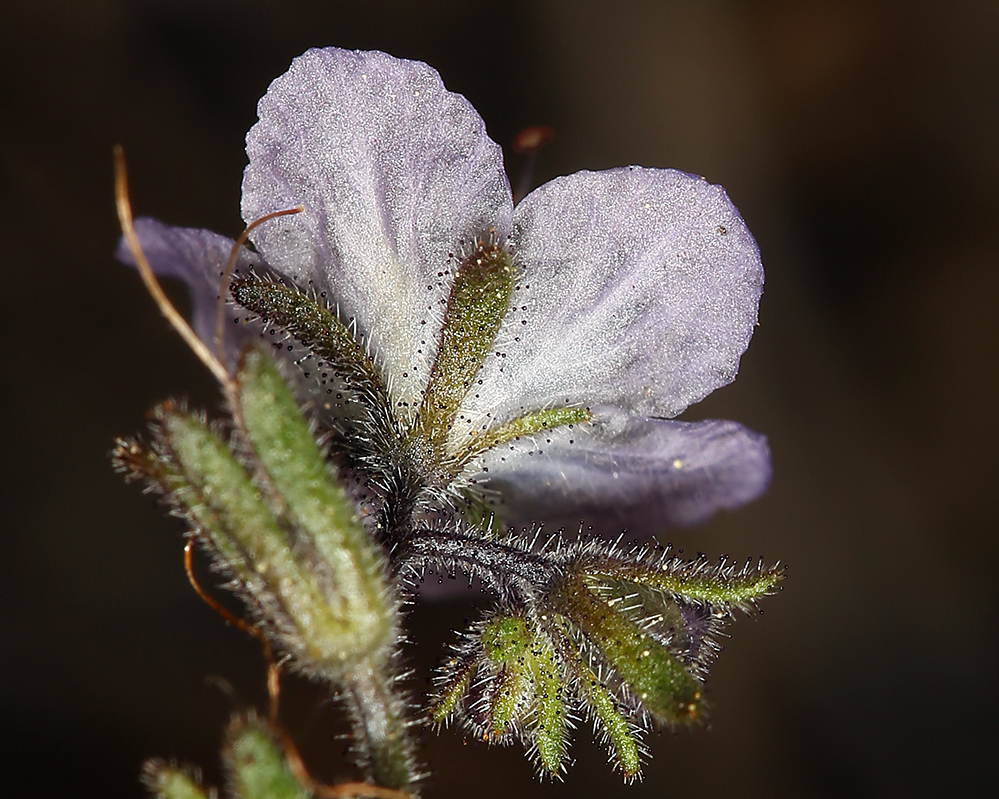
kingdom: Plantae
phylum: Tracheophyta
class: Magnoliopsida
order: Boraginales
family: Hydrophyllaceae
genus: Phacelia
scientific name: Phacelia pringlei
